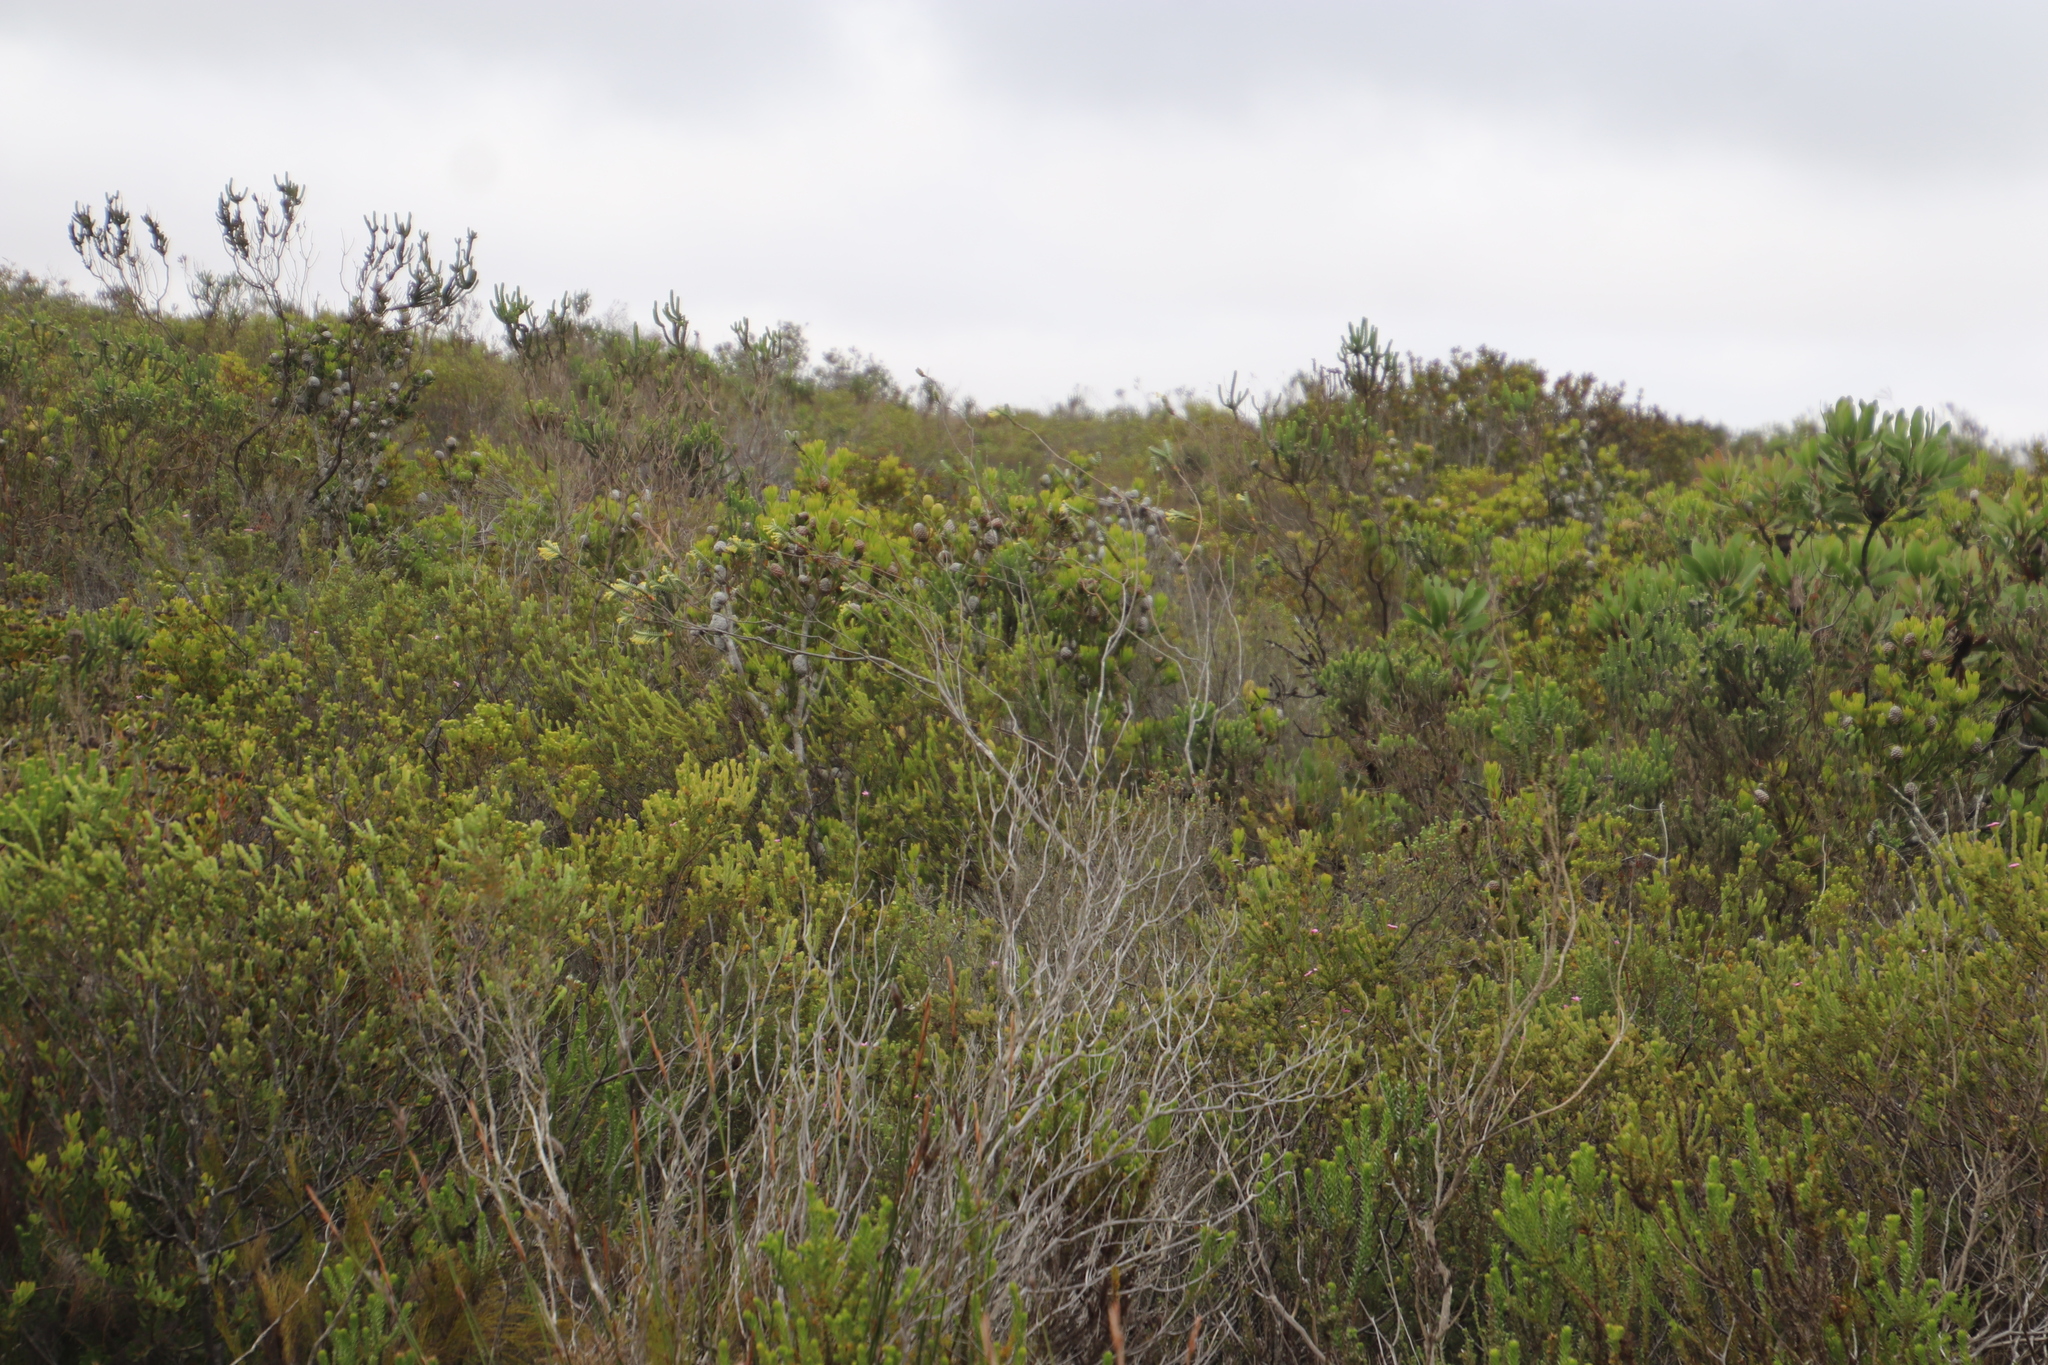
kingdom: Plantae
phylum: Tracheophyta
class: Magnoliopsida
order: Malvales
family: Thymelaeaceae
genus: Struthiola
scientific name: Struthiola argentea
